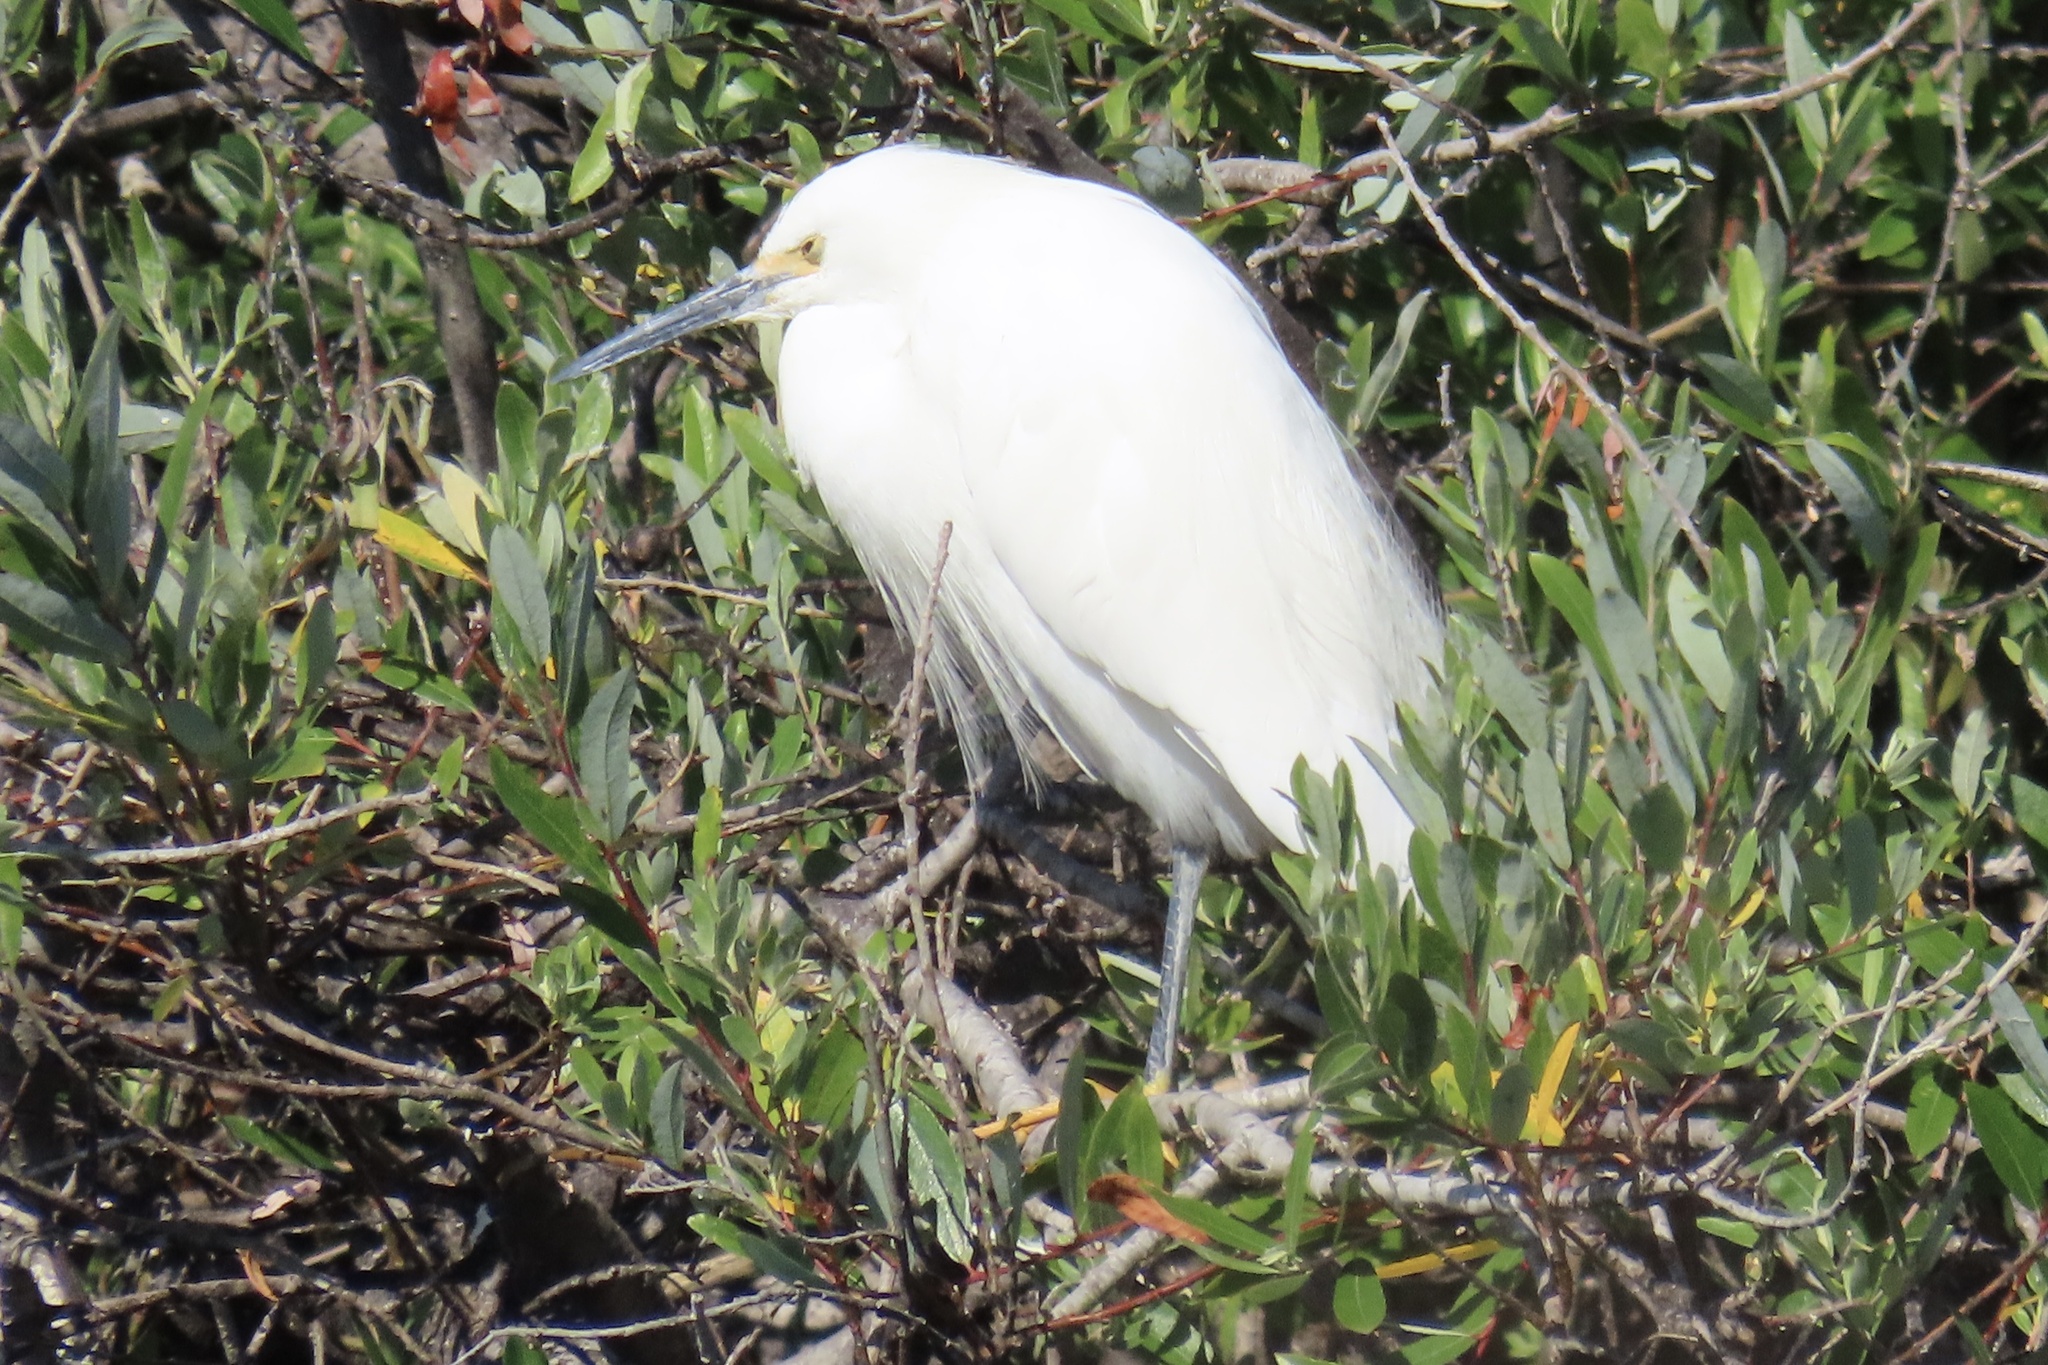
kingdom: Animalia
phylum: Chordata
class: Aves
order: Pelecaniformes
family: Ardeidae
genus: Egretta
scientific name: Egretta thula
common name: Snowy egret
